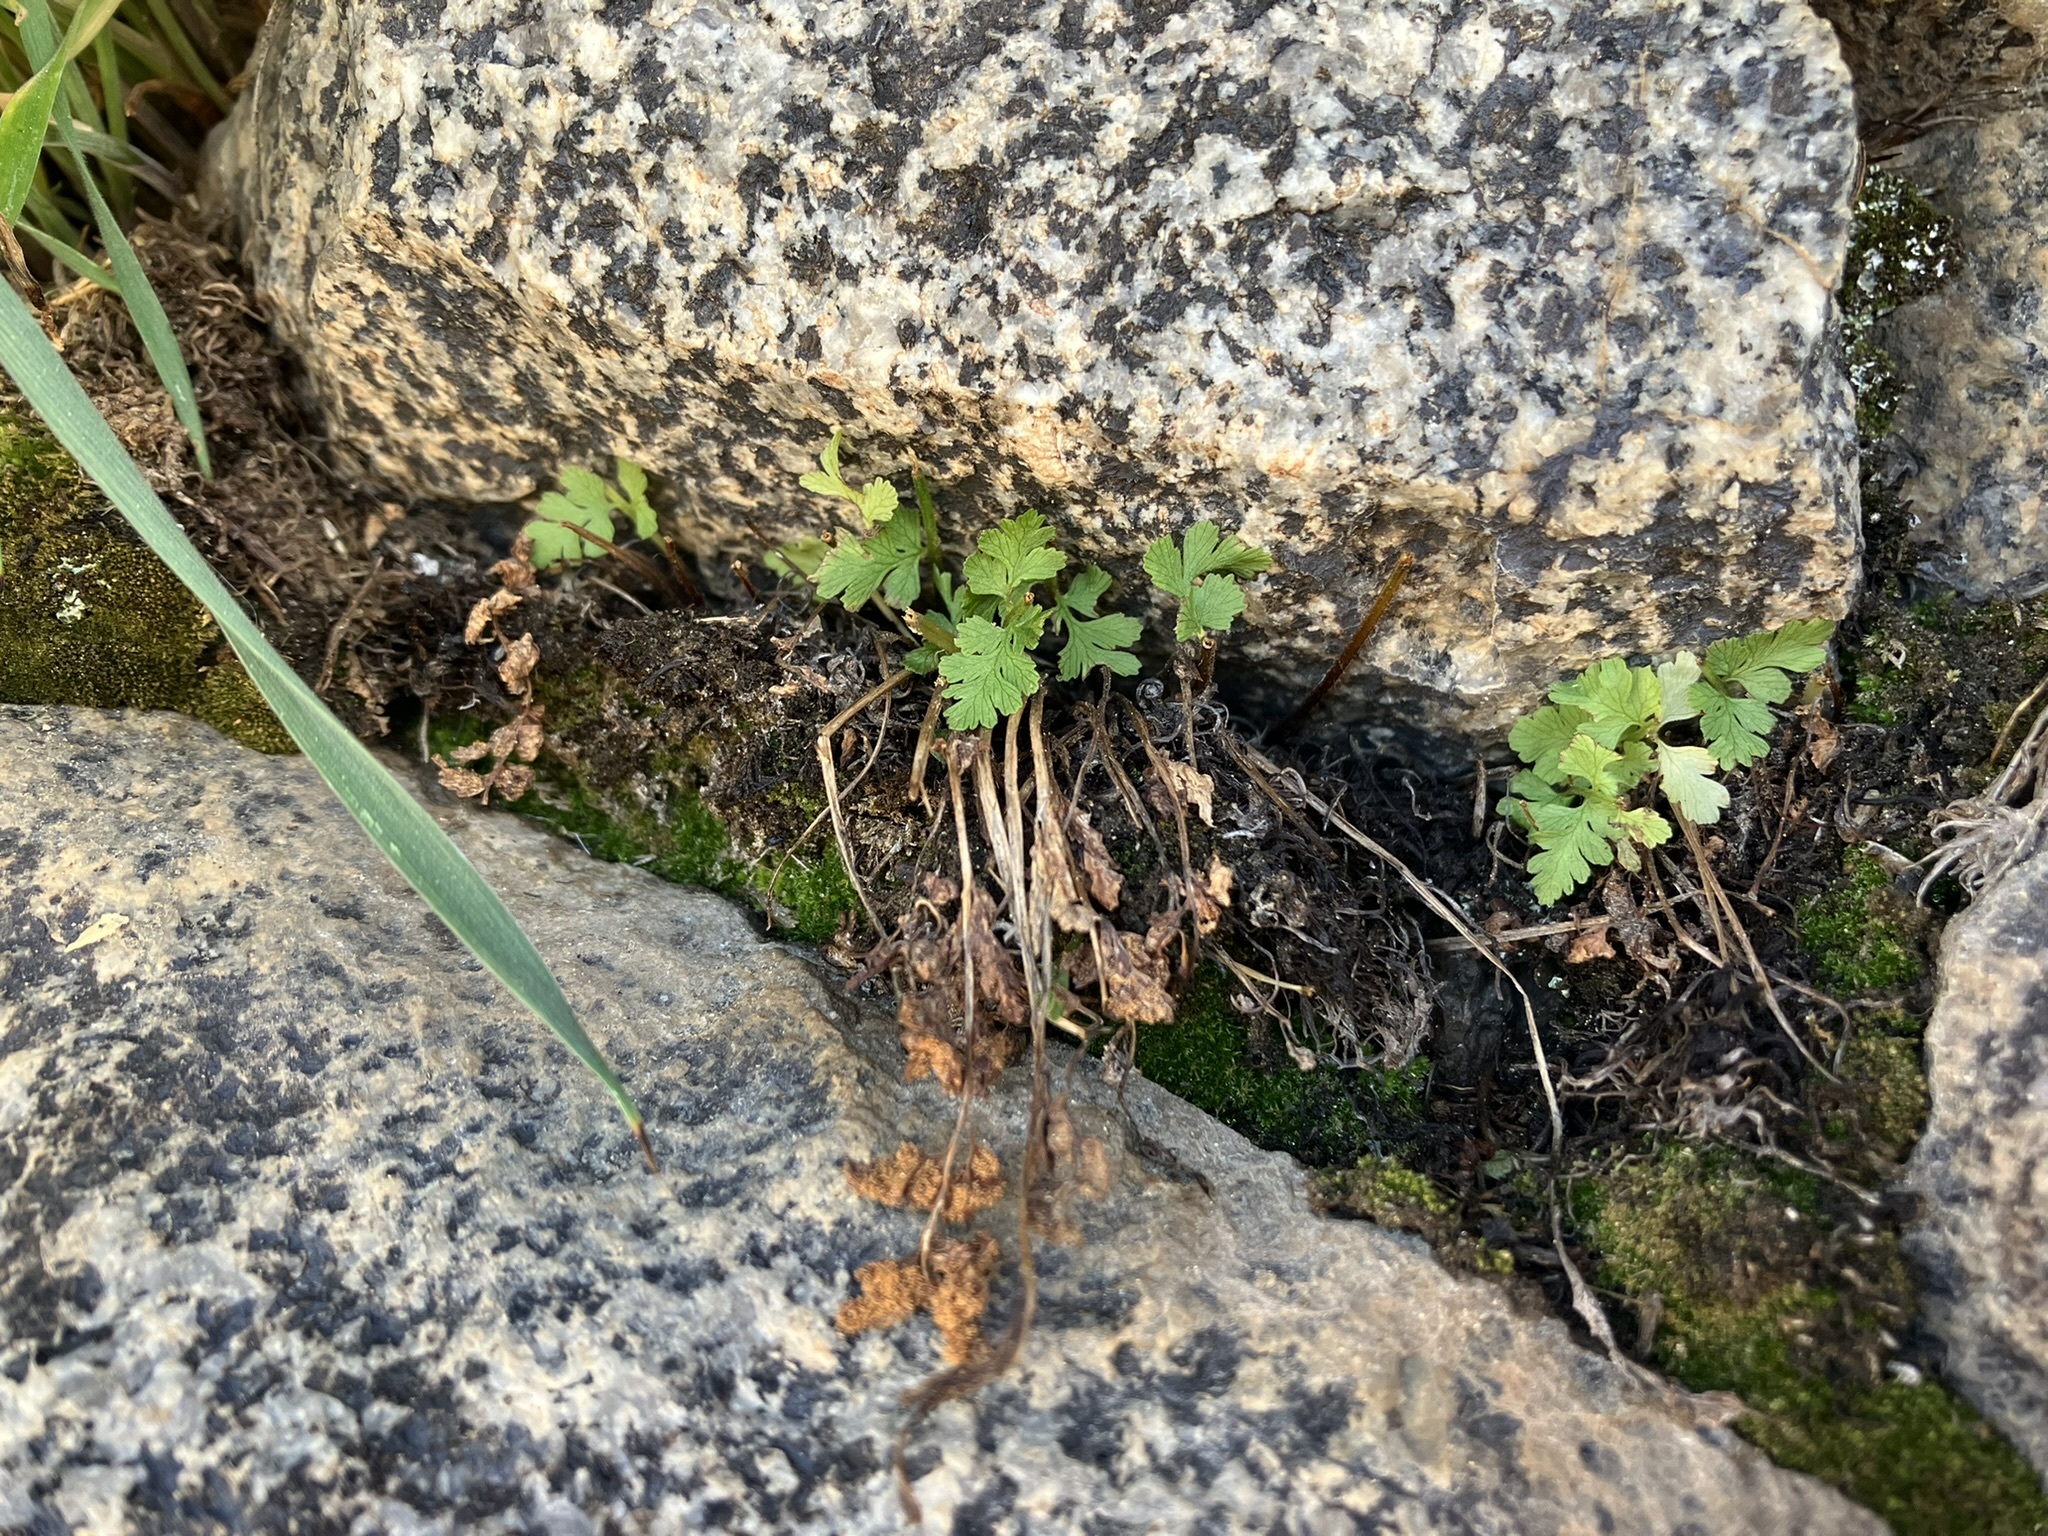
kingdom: Plantae
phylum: Tracheophyta
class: Polypodiopsida
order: Polypodiales
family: Cystopteridaceae
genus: Cystopteris
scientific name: Cystopteris fragilis
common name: Brittle bladder fern
